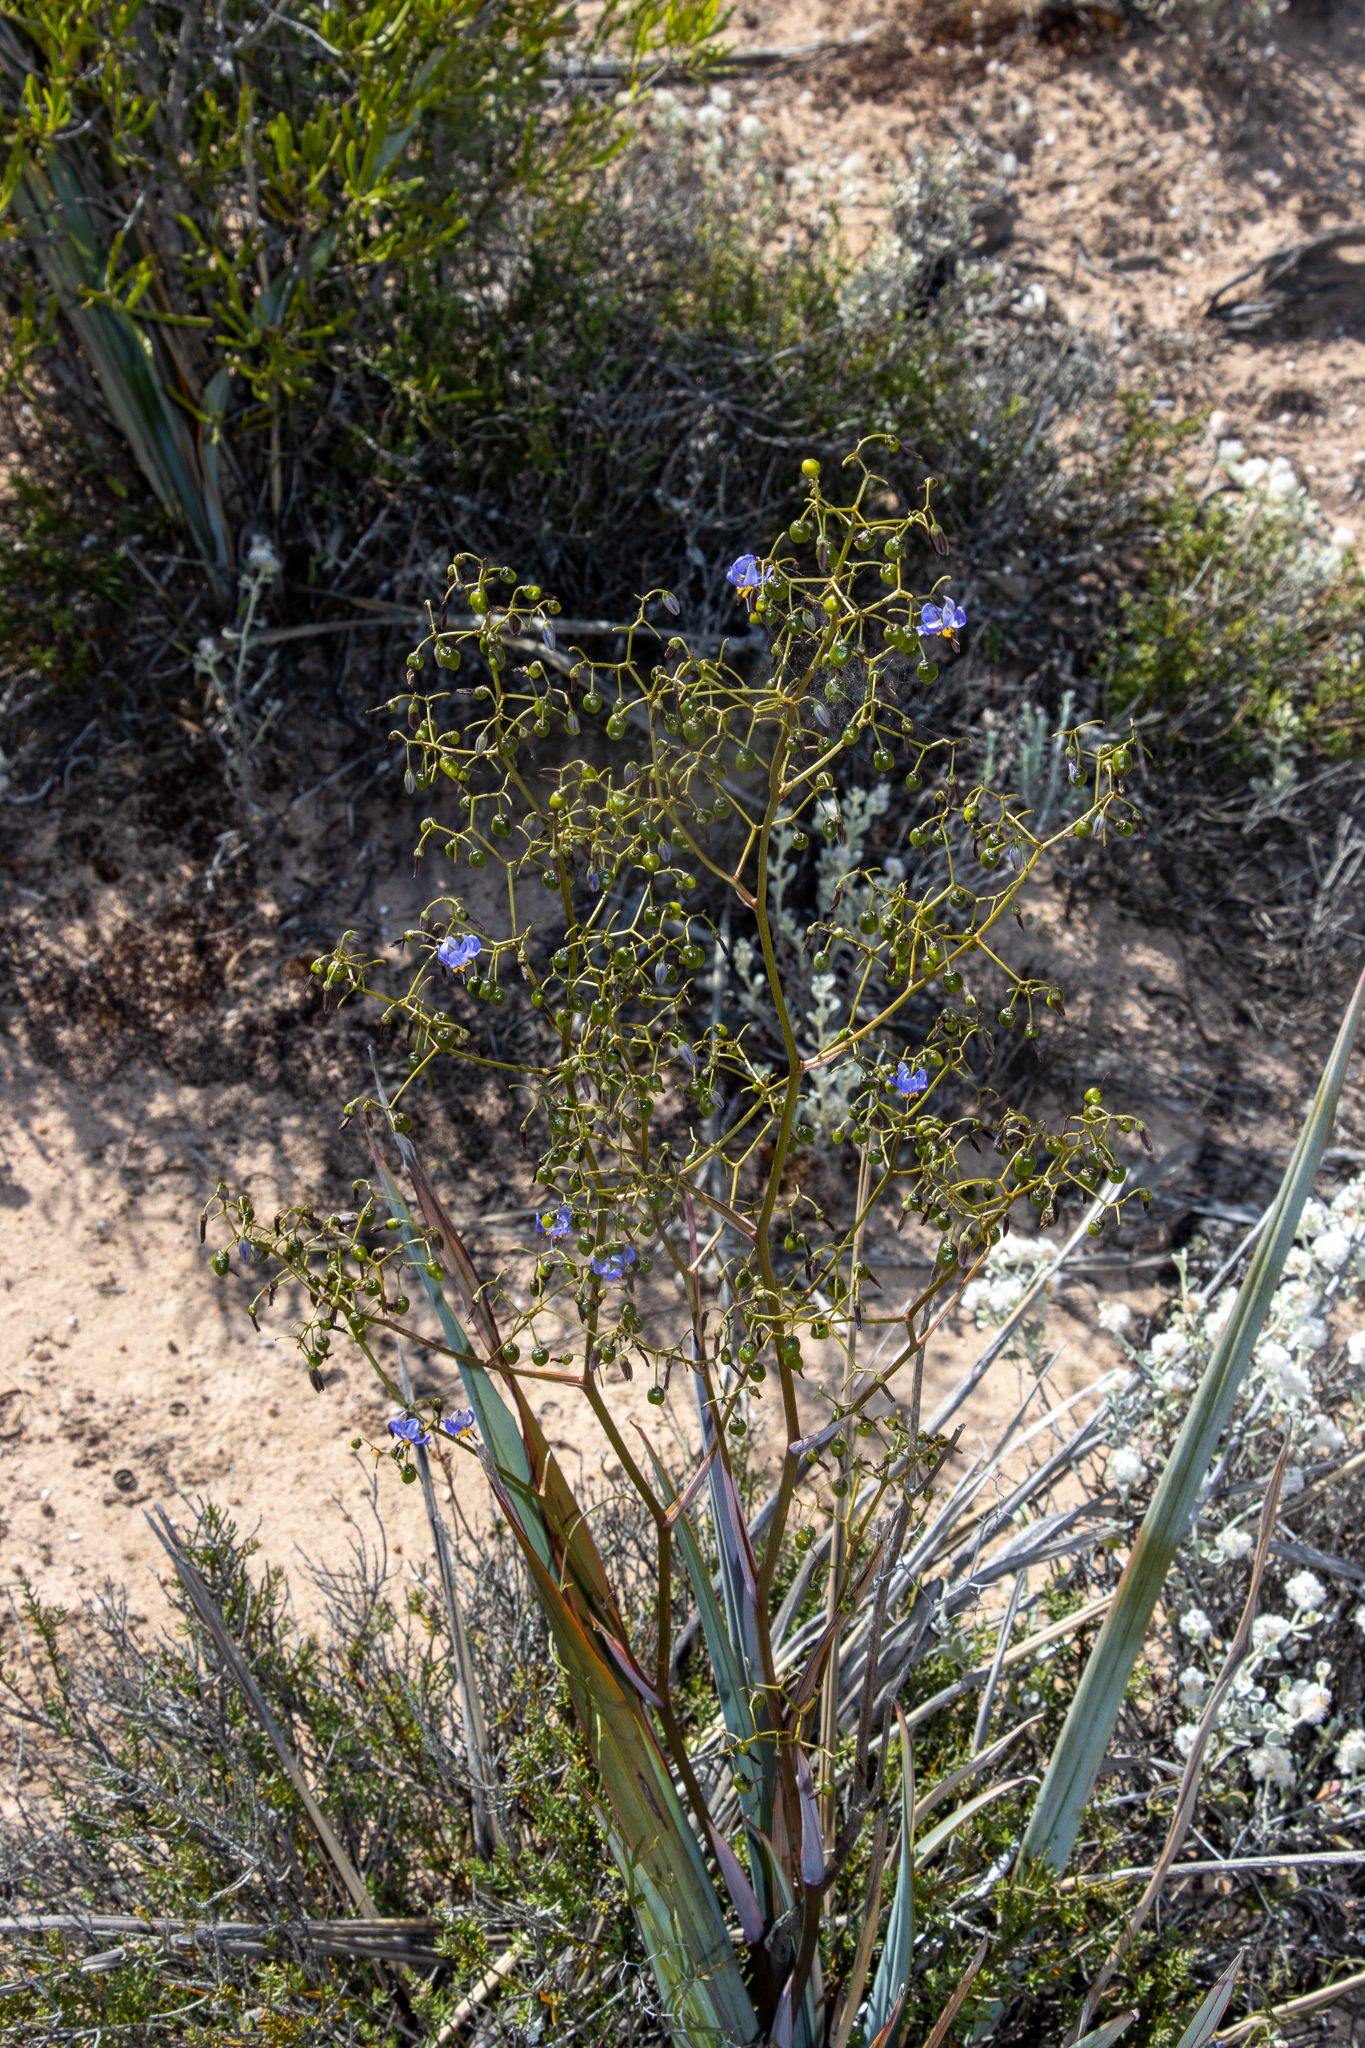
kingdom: Plantae
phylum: Tracheophyta
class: Liliopsida
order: Asparagales
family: Asphodelaceae
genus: Dianella
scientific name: Dianella revoluta
